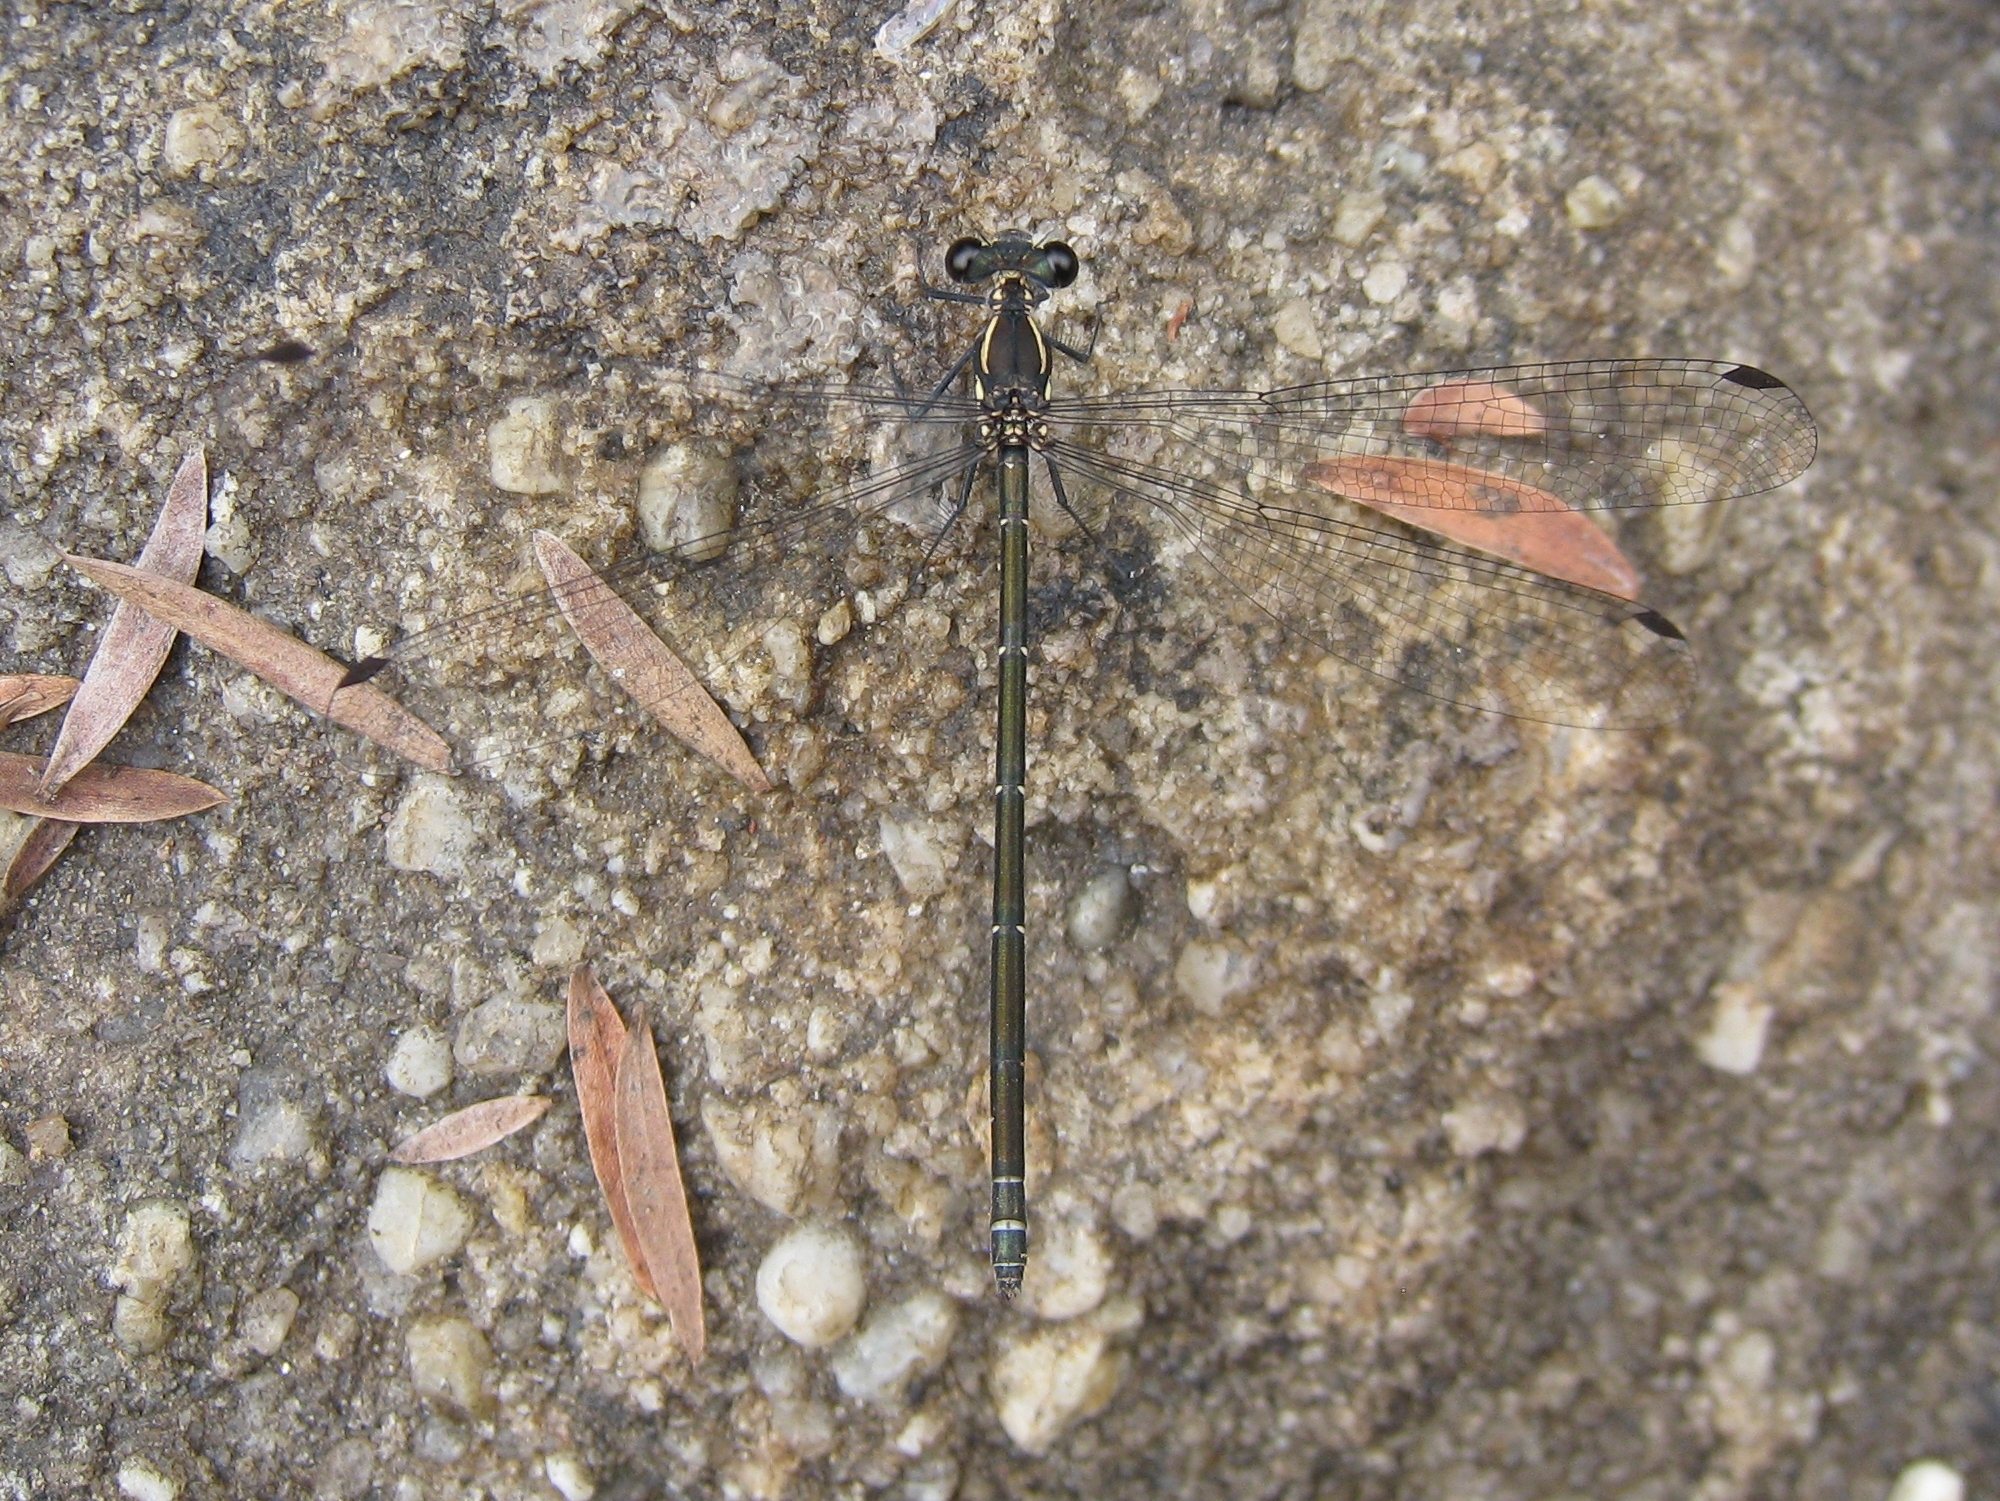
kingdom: Animalia
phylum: Arthropoda
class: Insecta
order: Odonata
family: Argiolestidae
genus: Austroargiolestes
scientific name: Austroargiolestes icteromelas
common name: Common flatwing
